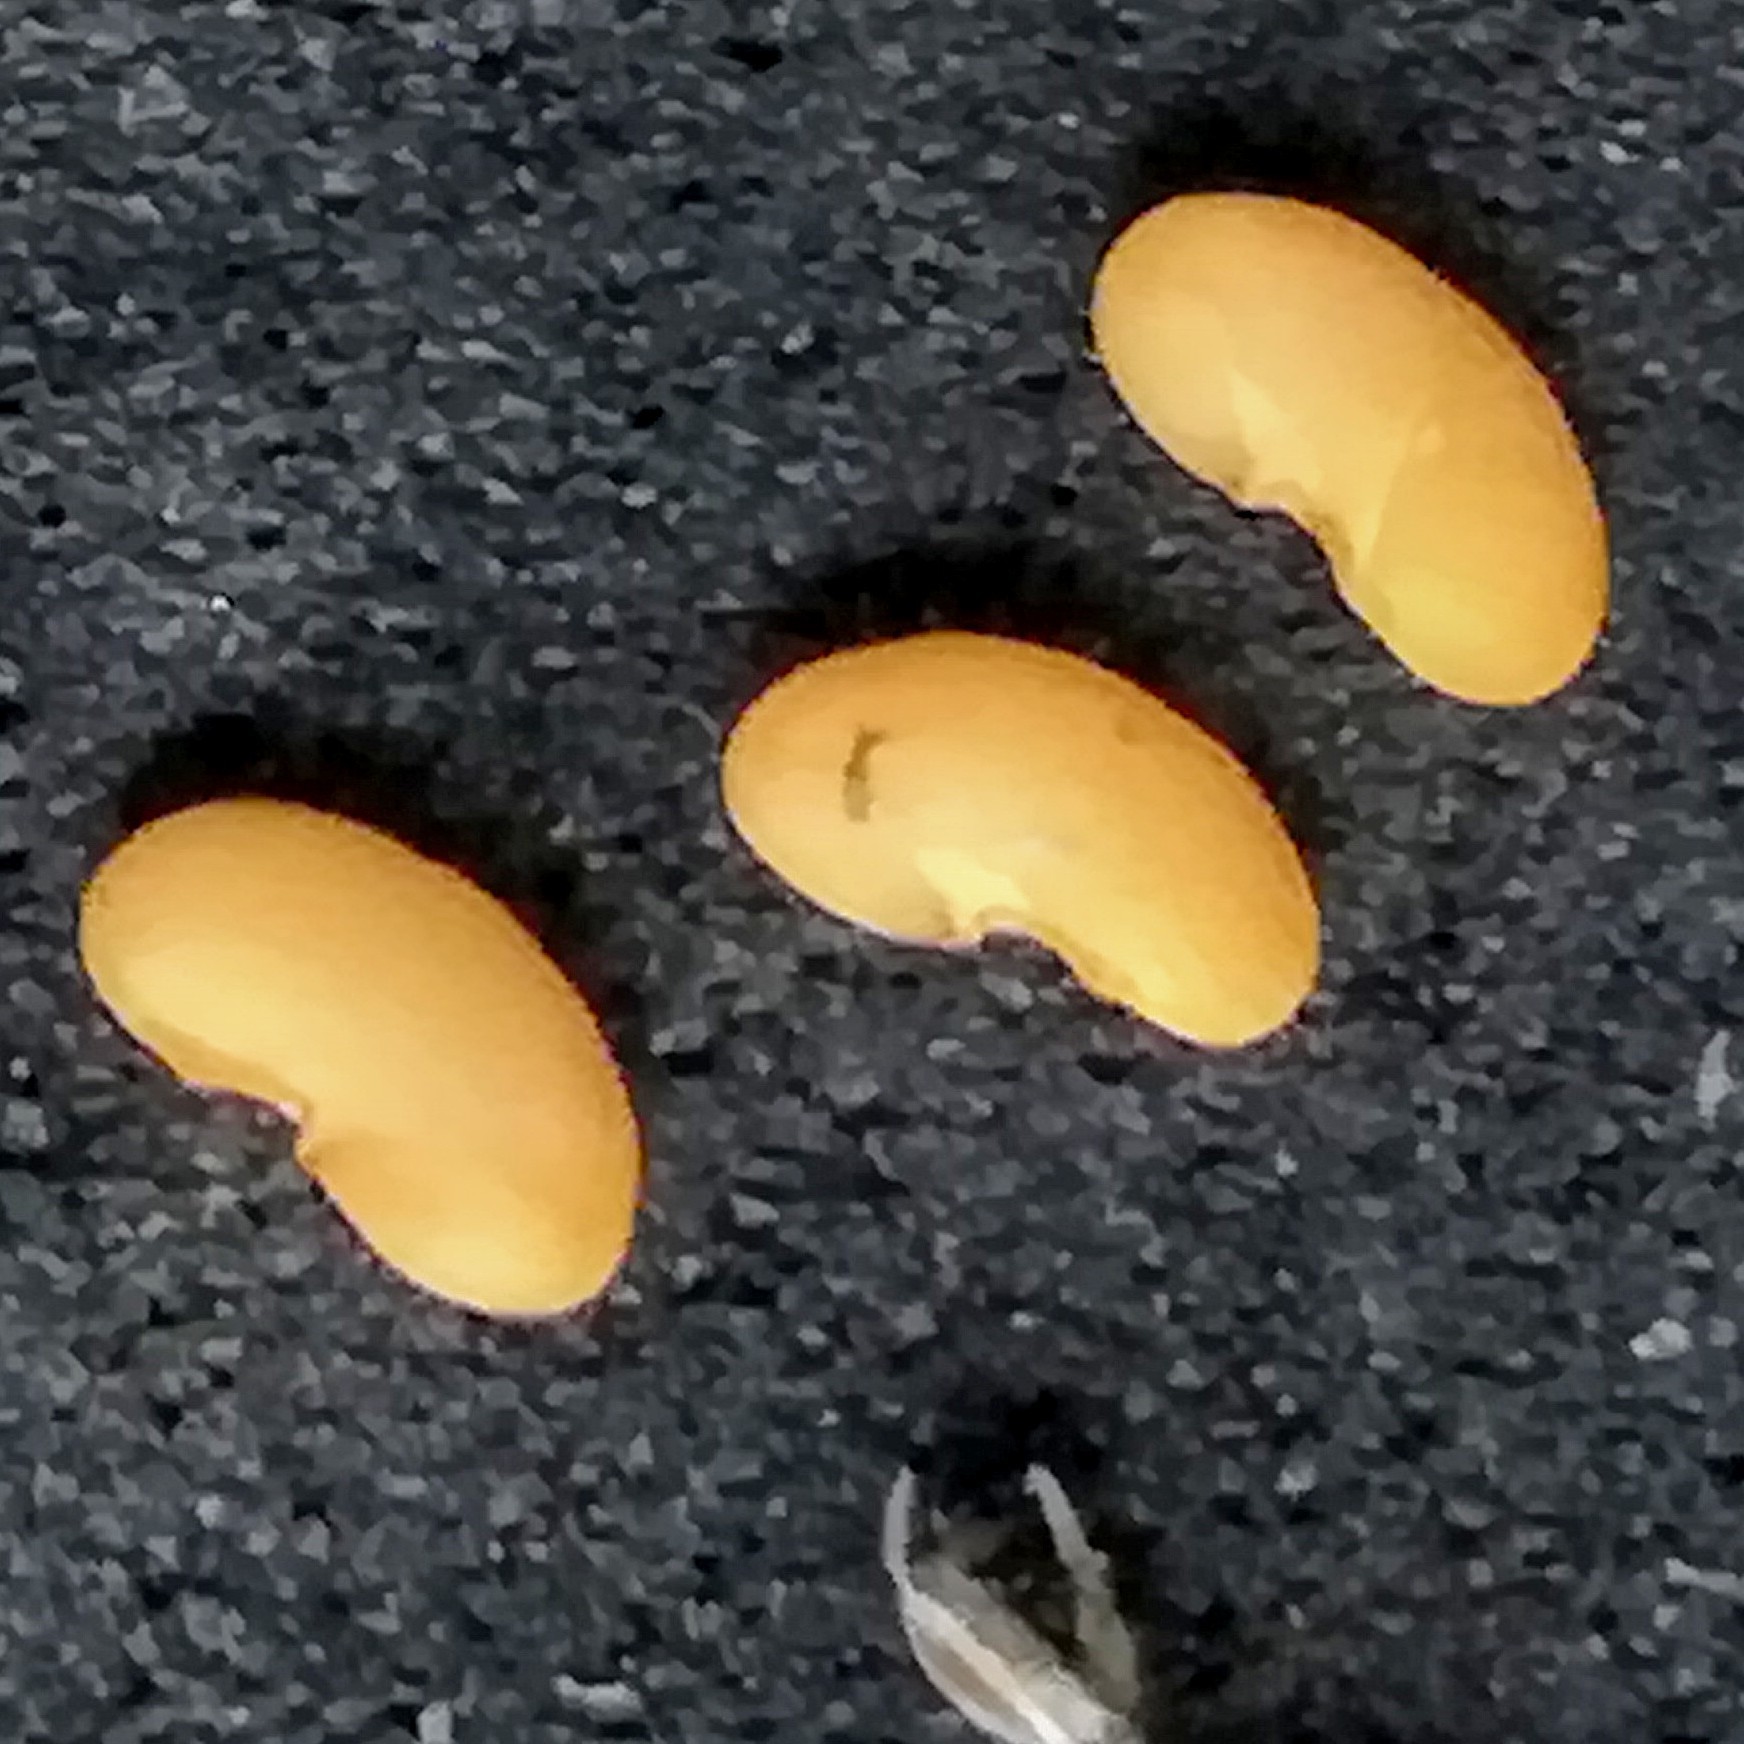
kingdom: Plantae
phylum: Tracheophyta
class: Magnoliopsida
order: Fabales
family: Fabaceae
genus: Medicago
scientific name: Medicago polymorpha
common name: Burclover
